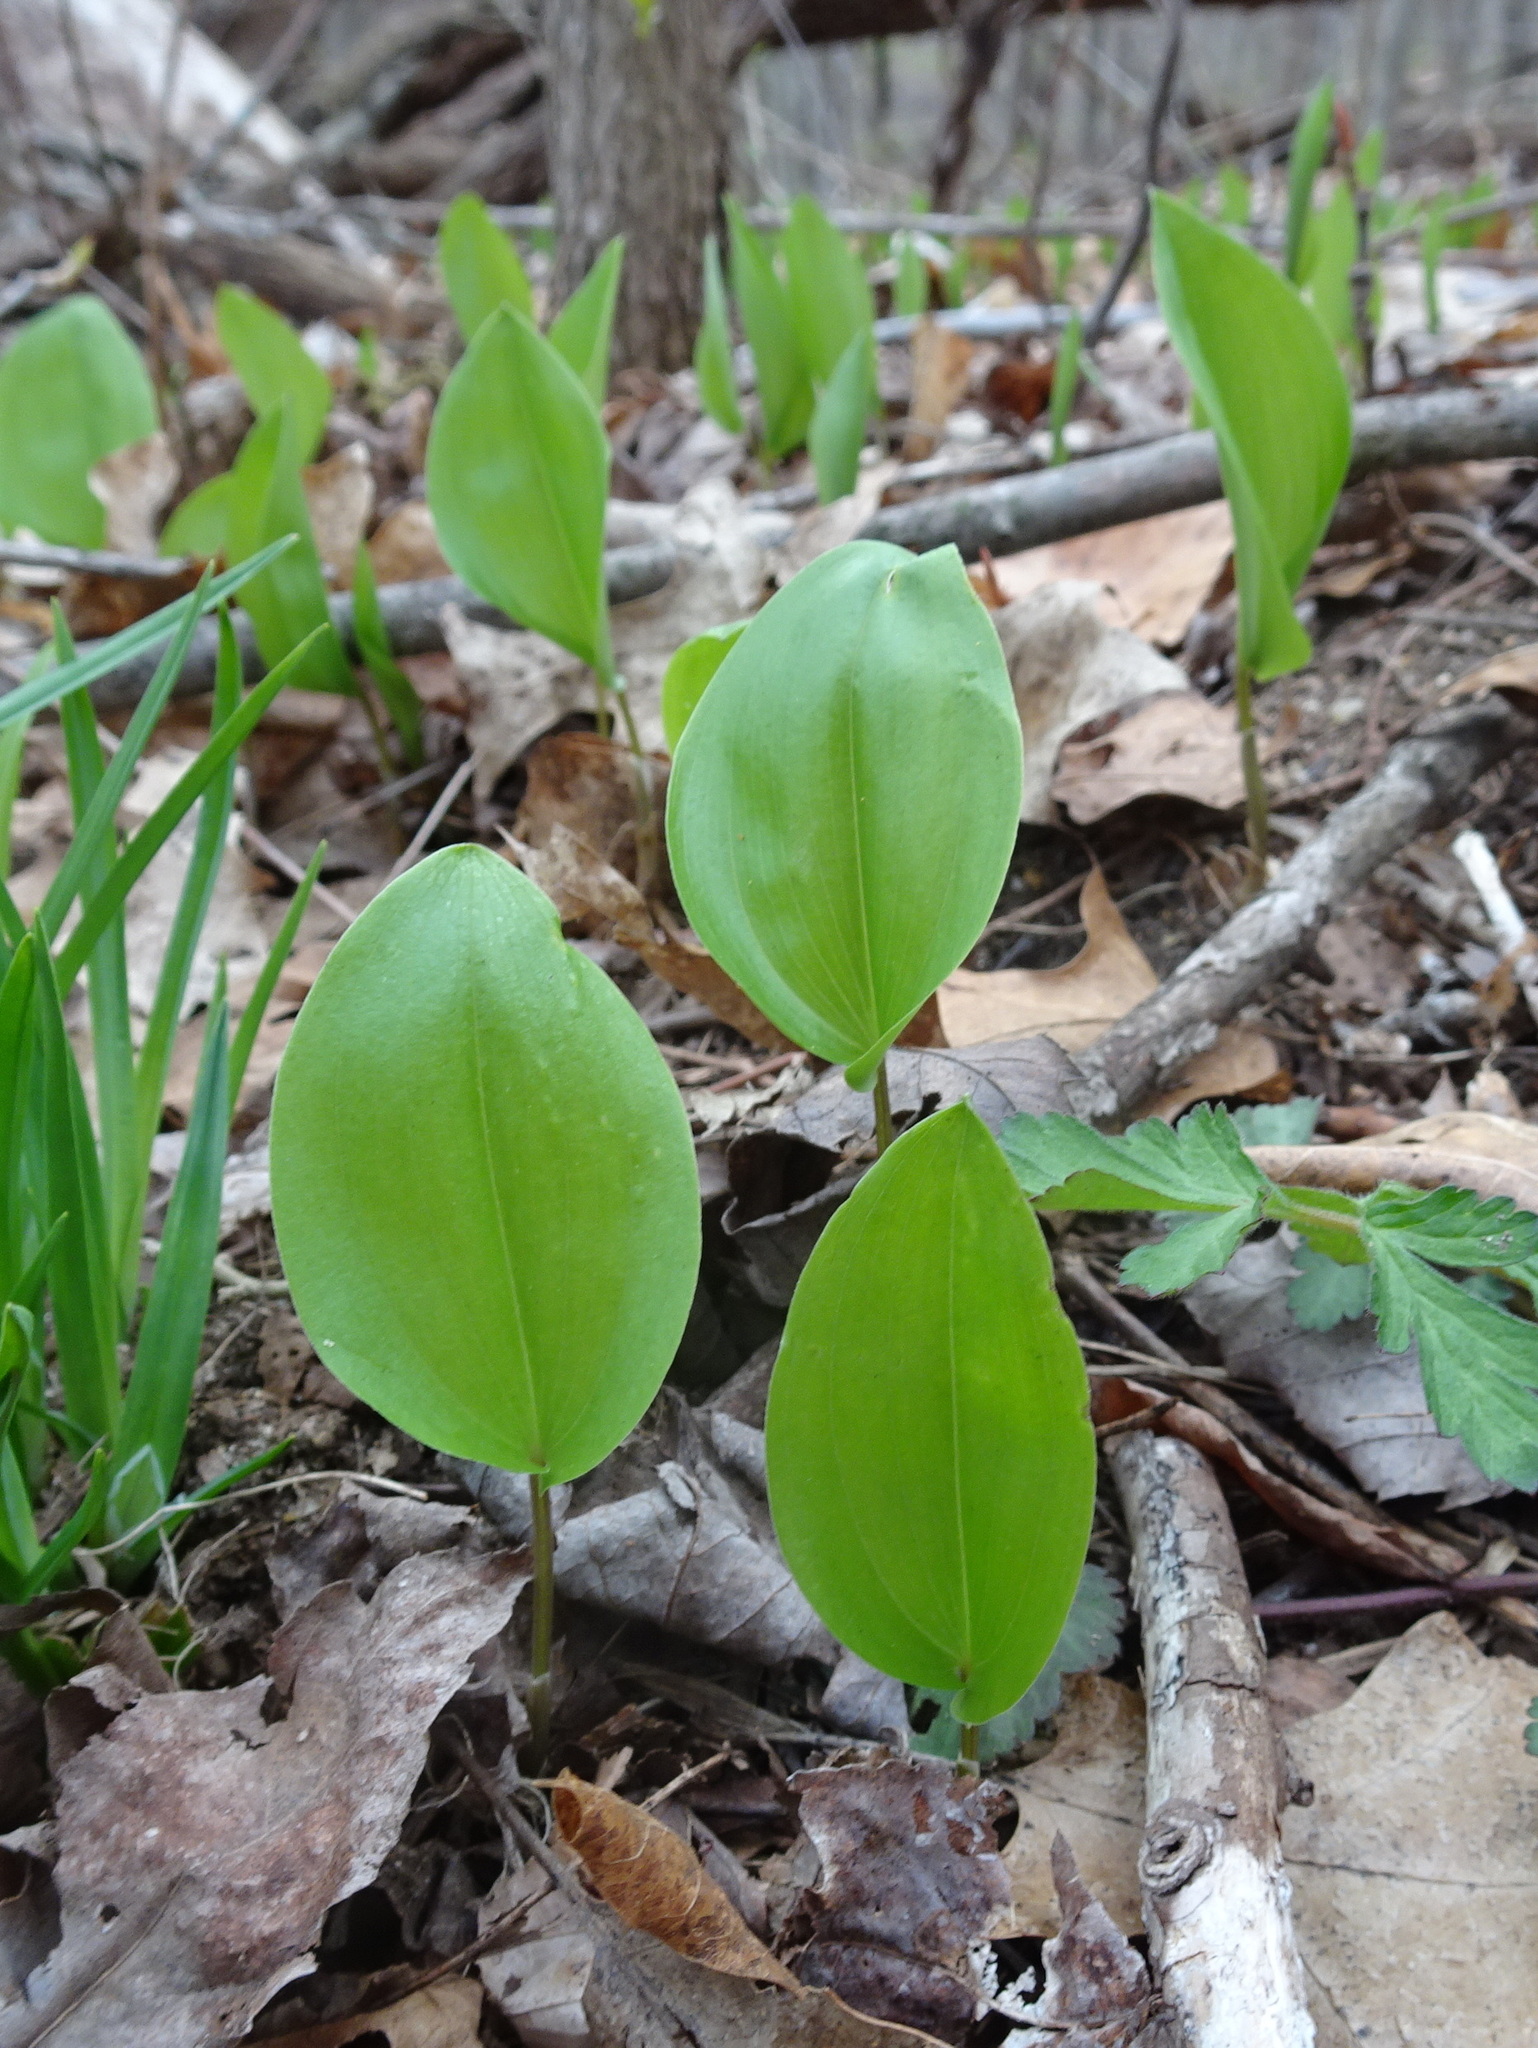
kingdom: Plantae
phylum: Tracheophyta
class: Liliopsida
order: Asparagales
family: Asparagaceae
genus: Maianthemum
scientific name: Maianthemum canadense
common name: False lily-of-the-valley
